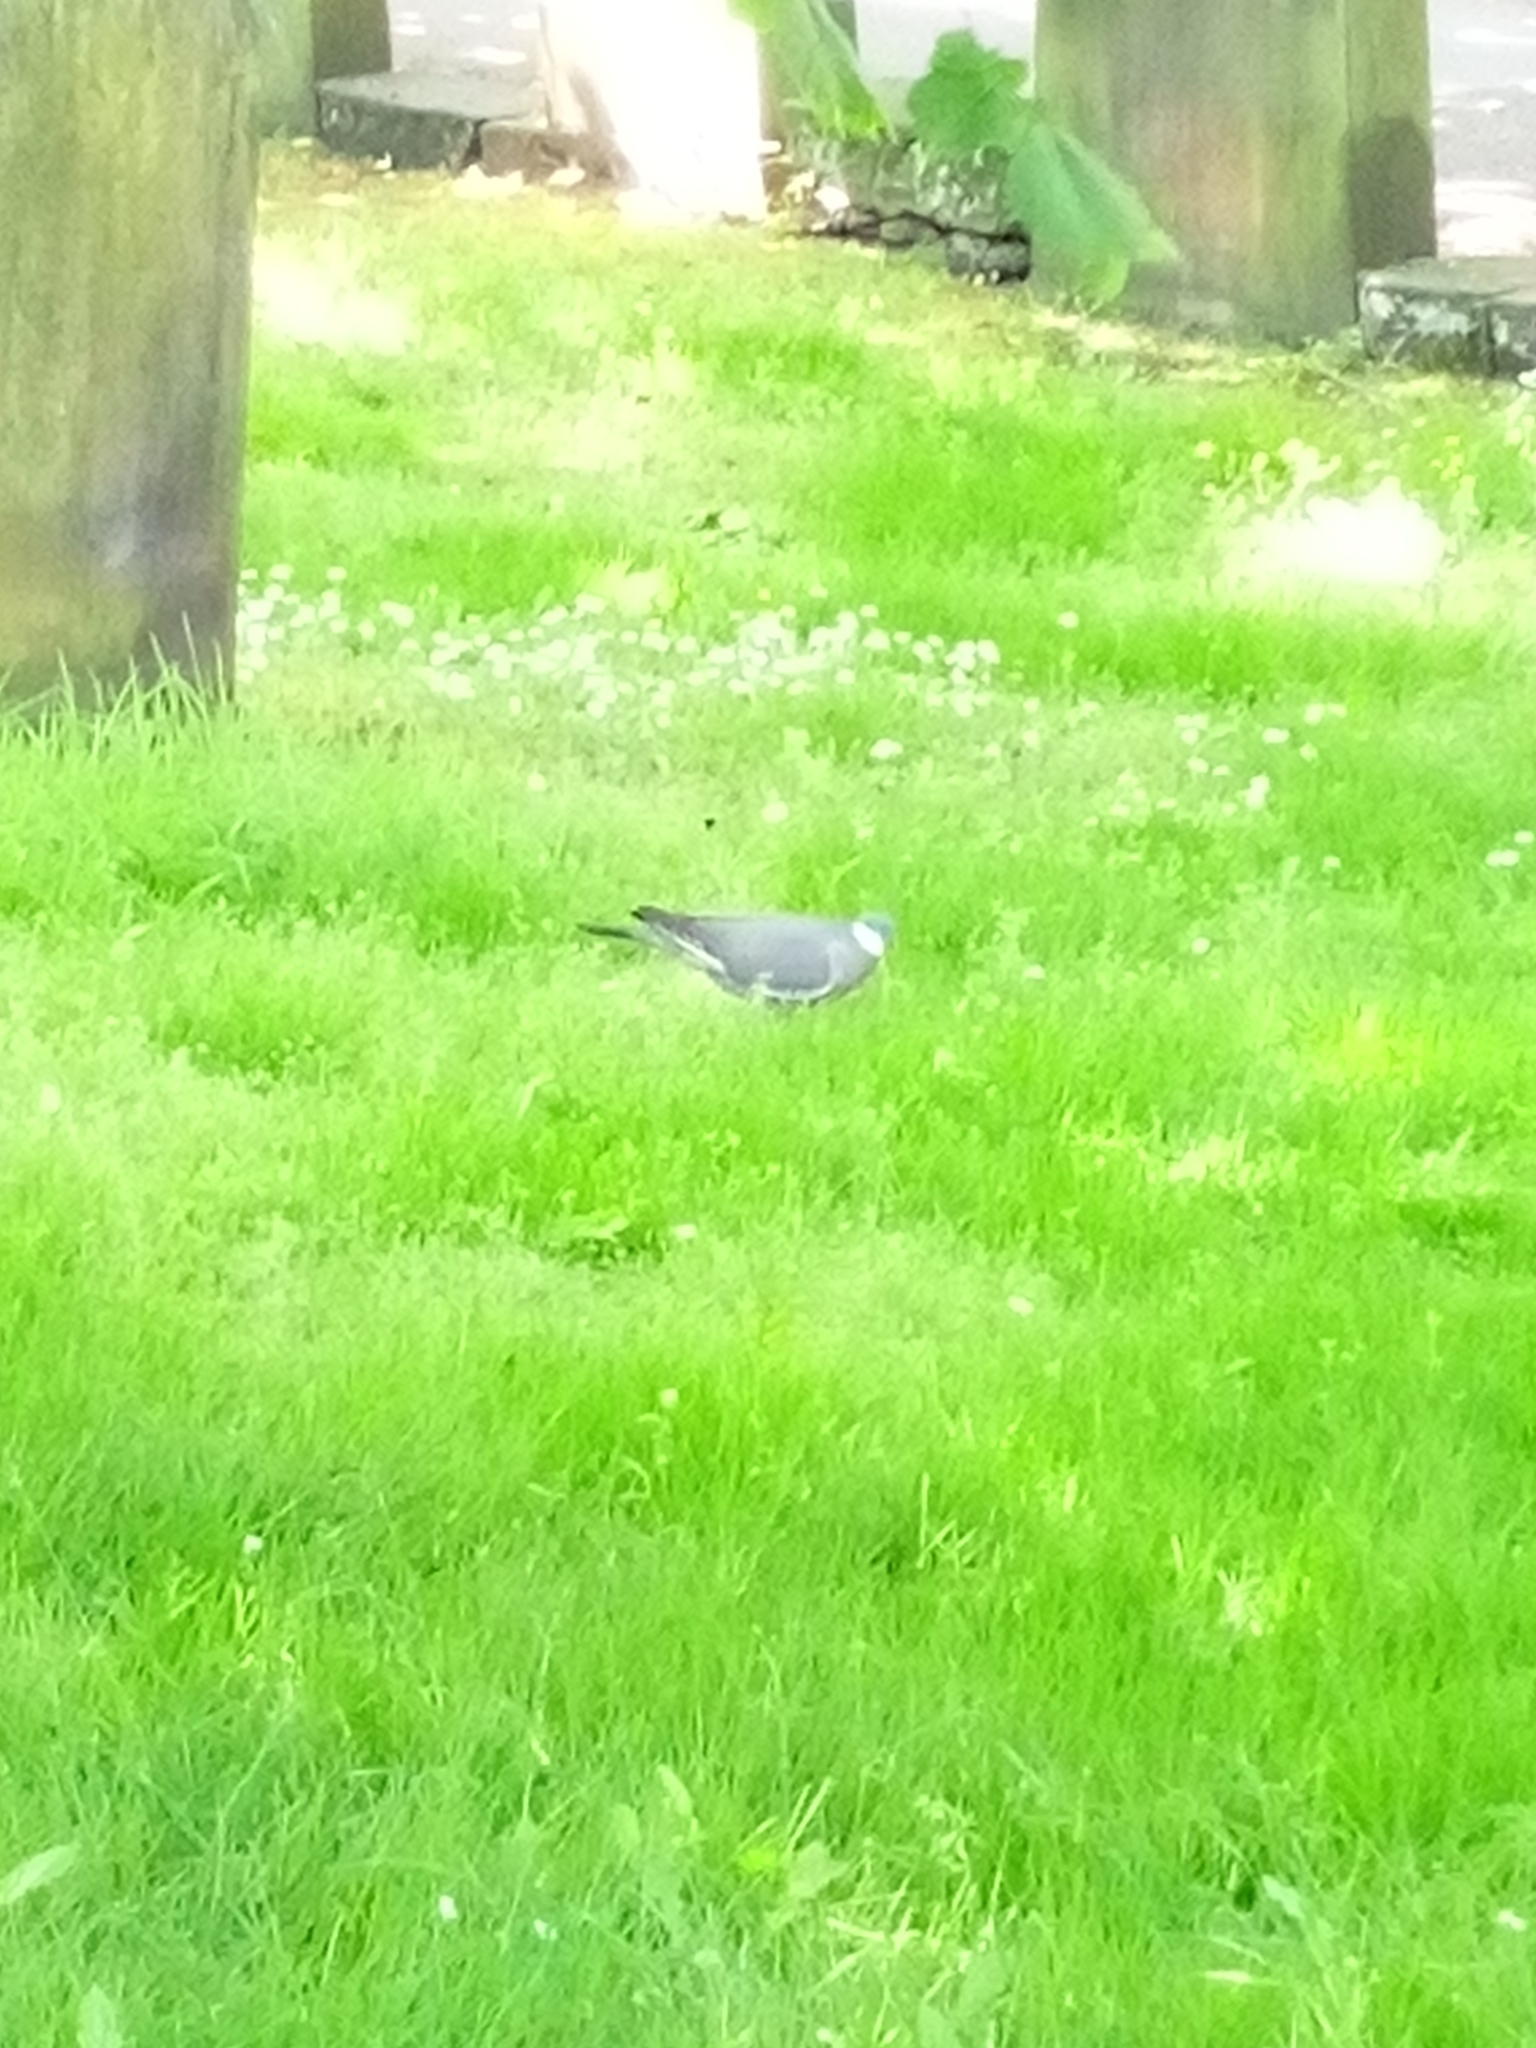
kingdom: Animalia
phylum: Chordata
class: Aves
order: Columbiformes
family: Columbidae
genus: Columba
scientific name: Columba palumbus
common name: Common wood pigeon
